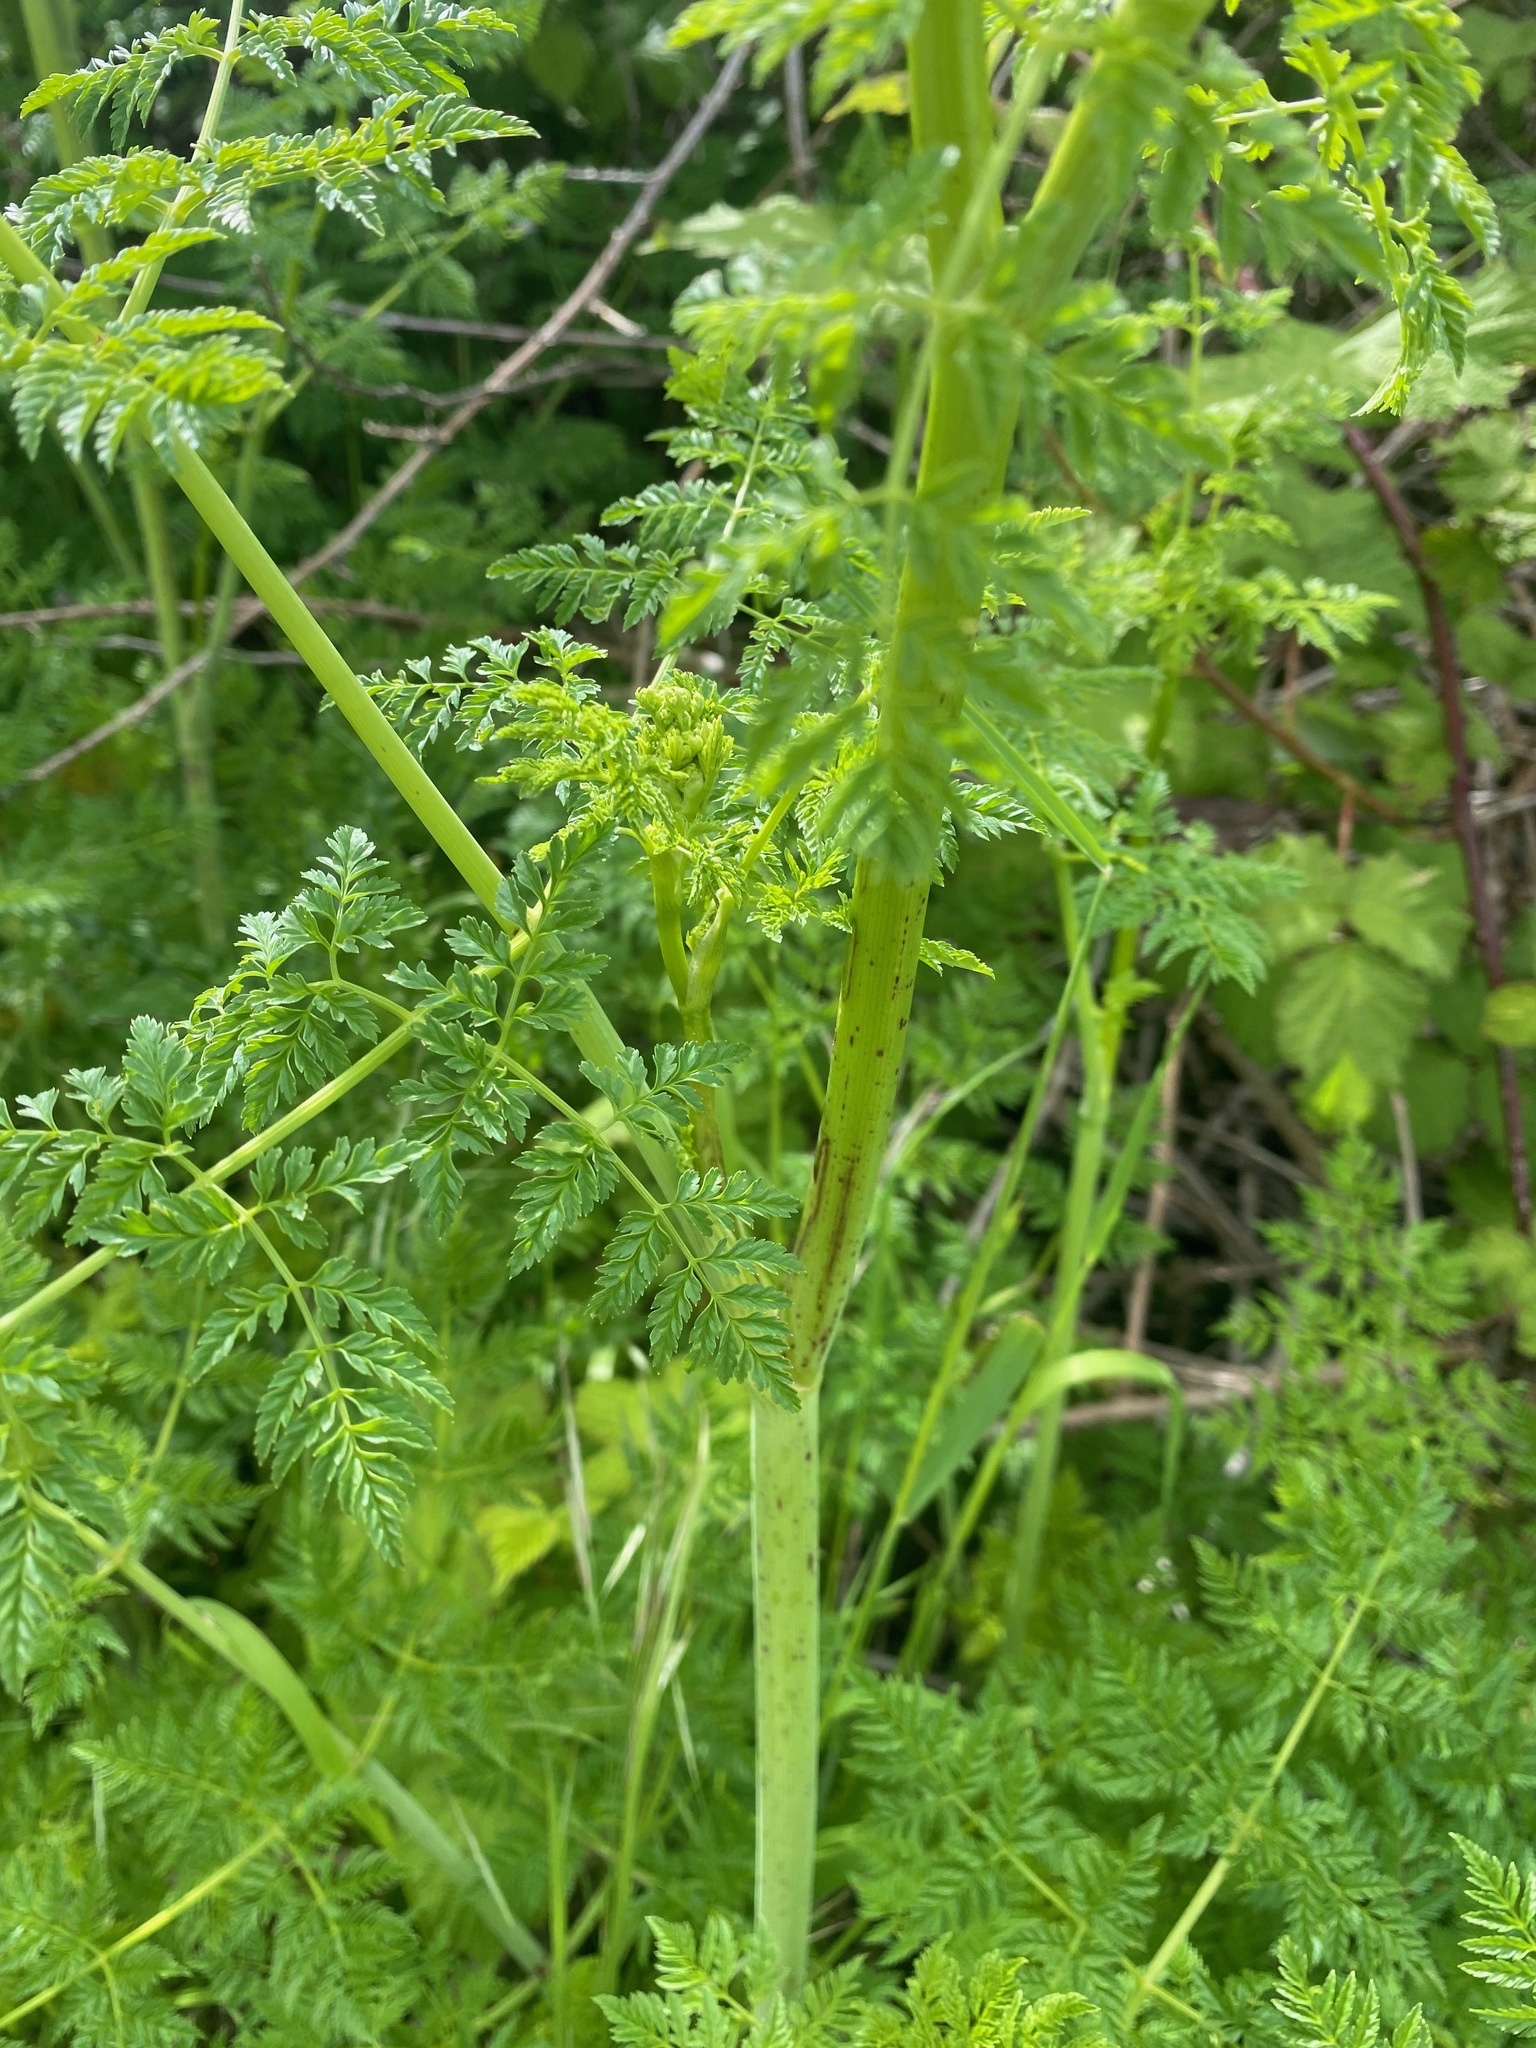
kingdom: Plantae
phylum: Tracheophyta
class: Magnoliopsida
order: Apiales
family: Apiaceae
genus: Conium
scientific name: Conium maculatum
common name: Hemlock
